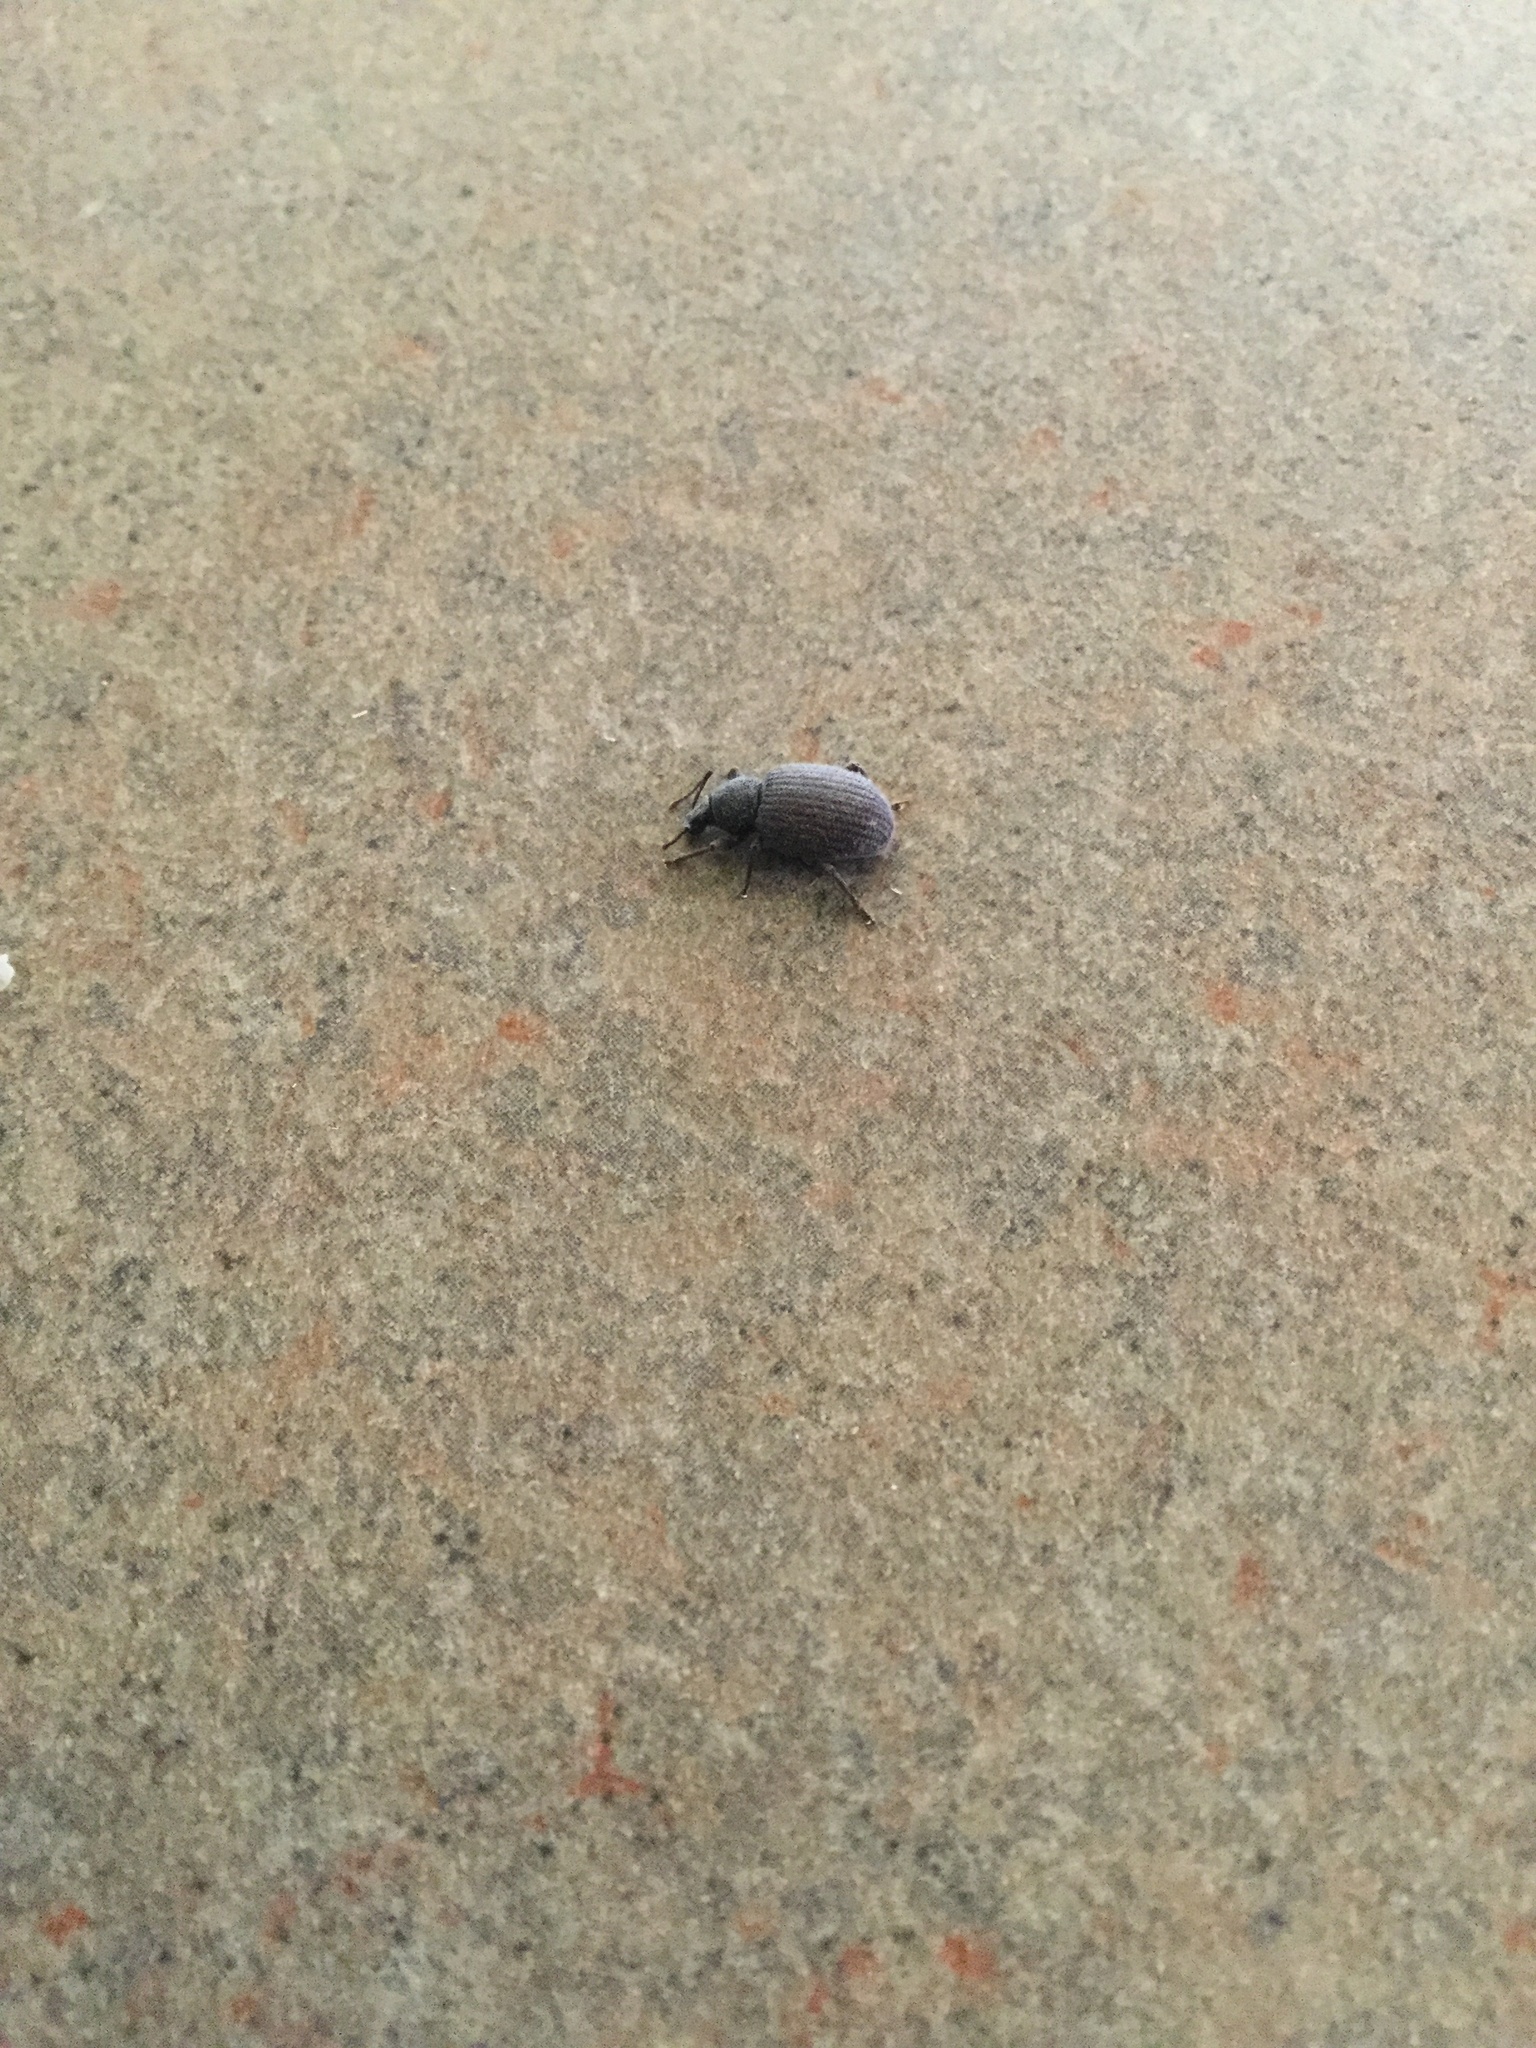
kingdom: Animalia
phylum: Arthropoda
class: Insecta
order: Coleoptera
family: Curculionidae
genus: Otiorhynchus
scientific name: Otiorhynchus rugosostriatus
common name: Weevil
